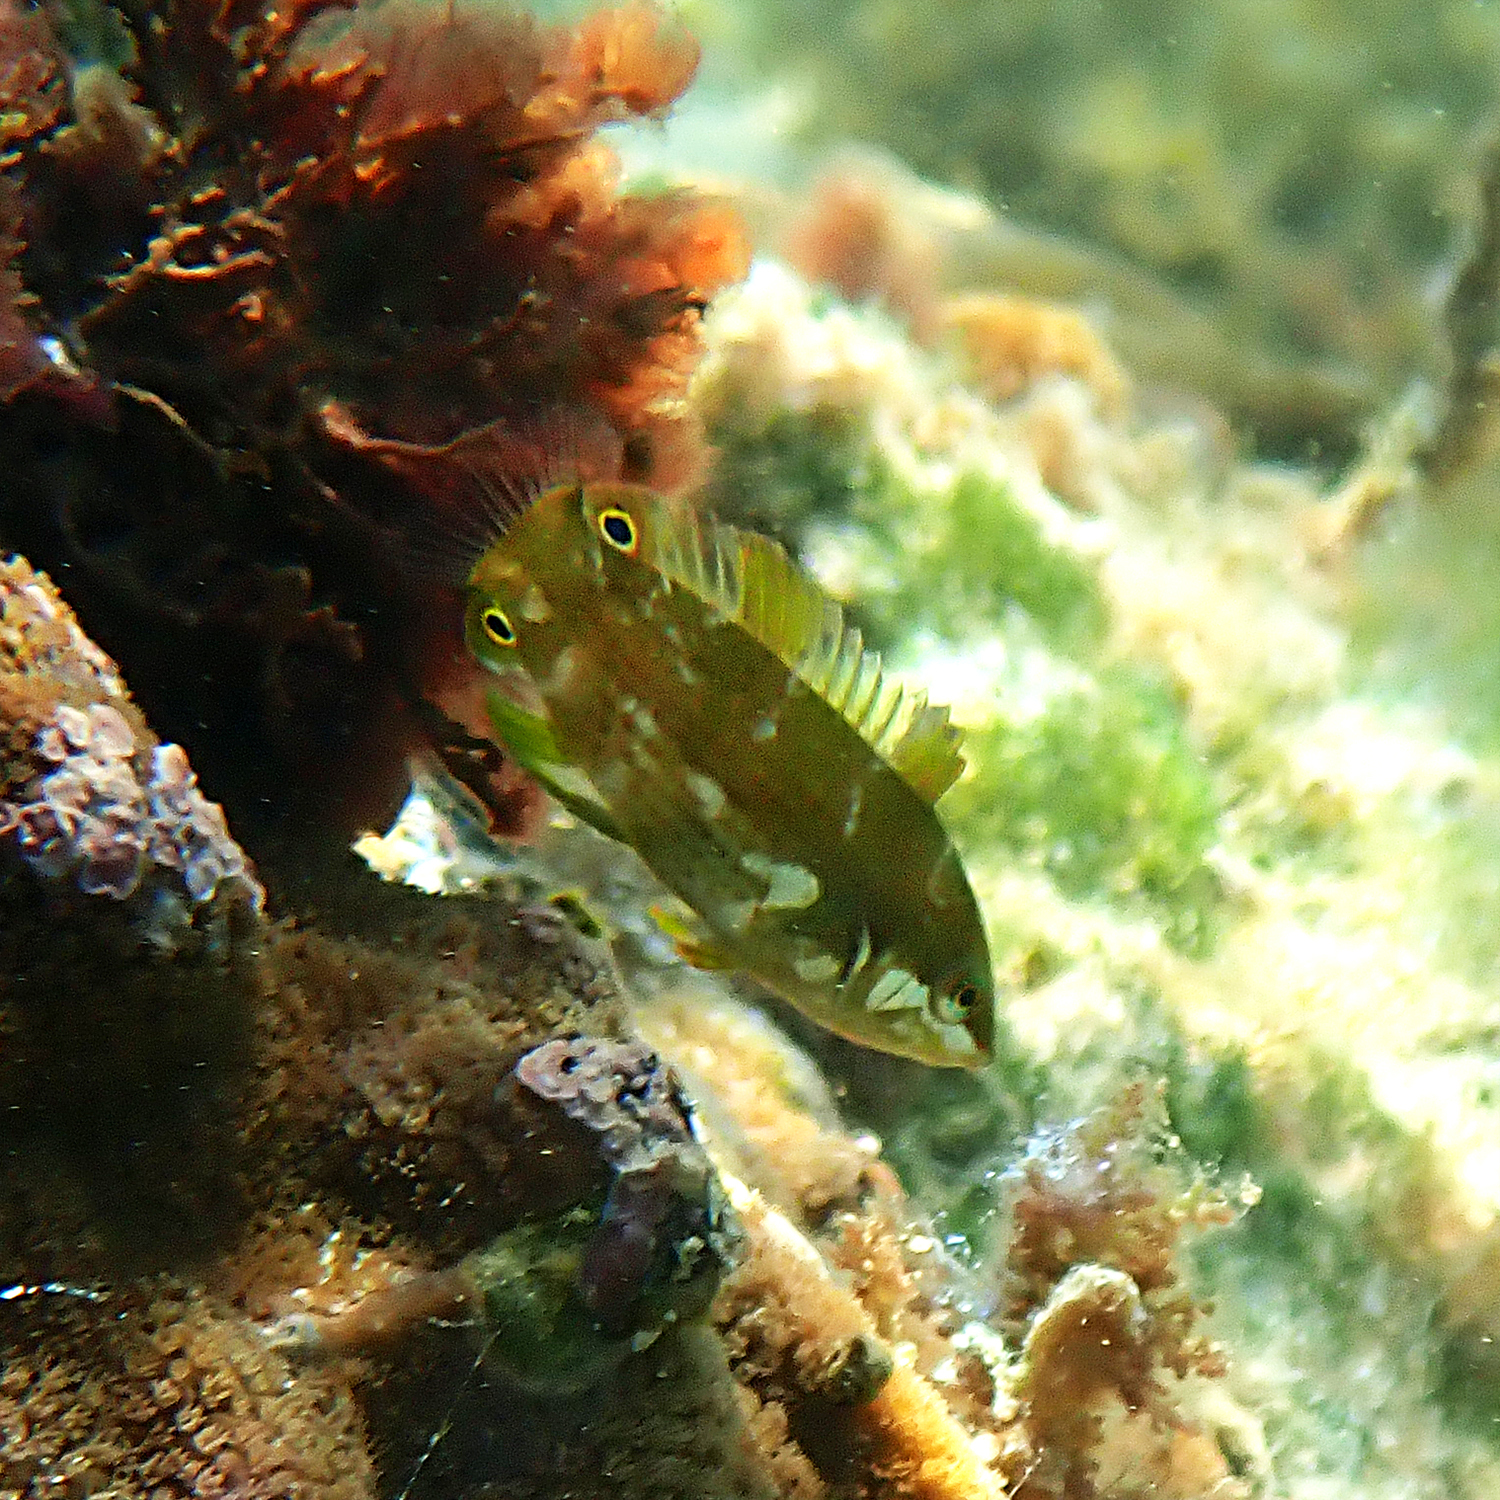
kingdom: Animalia
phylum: Chordata
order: Perciformes
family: Labridae
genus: Anampses
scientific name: Anampses elegans
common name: Elegant wrasse
